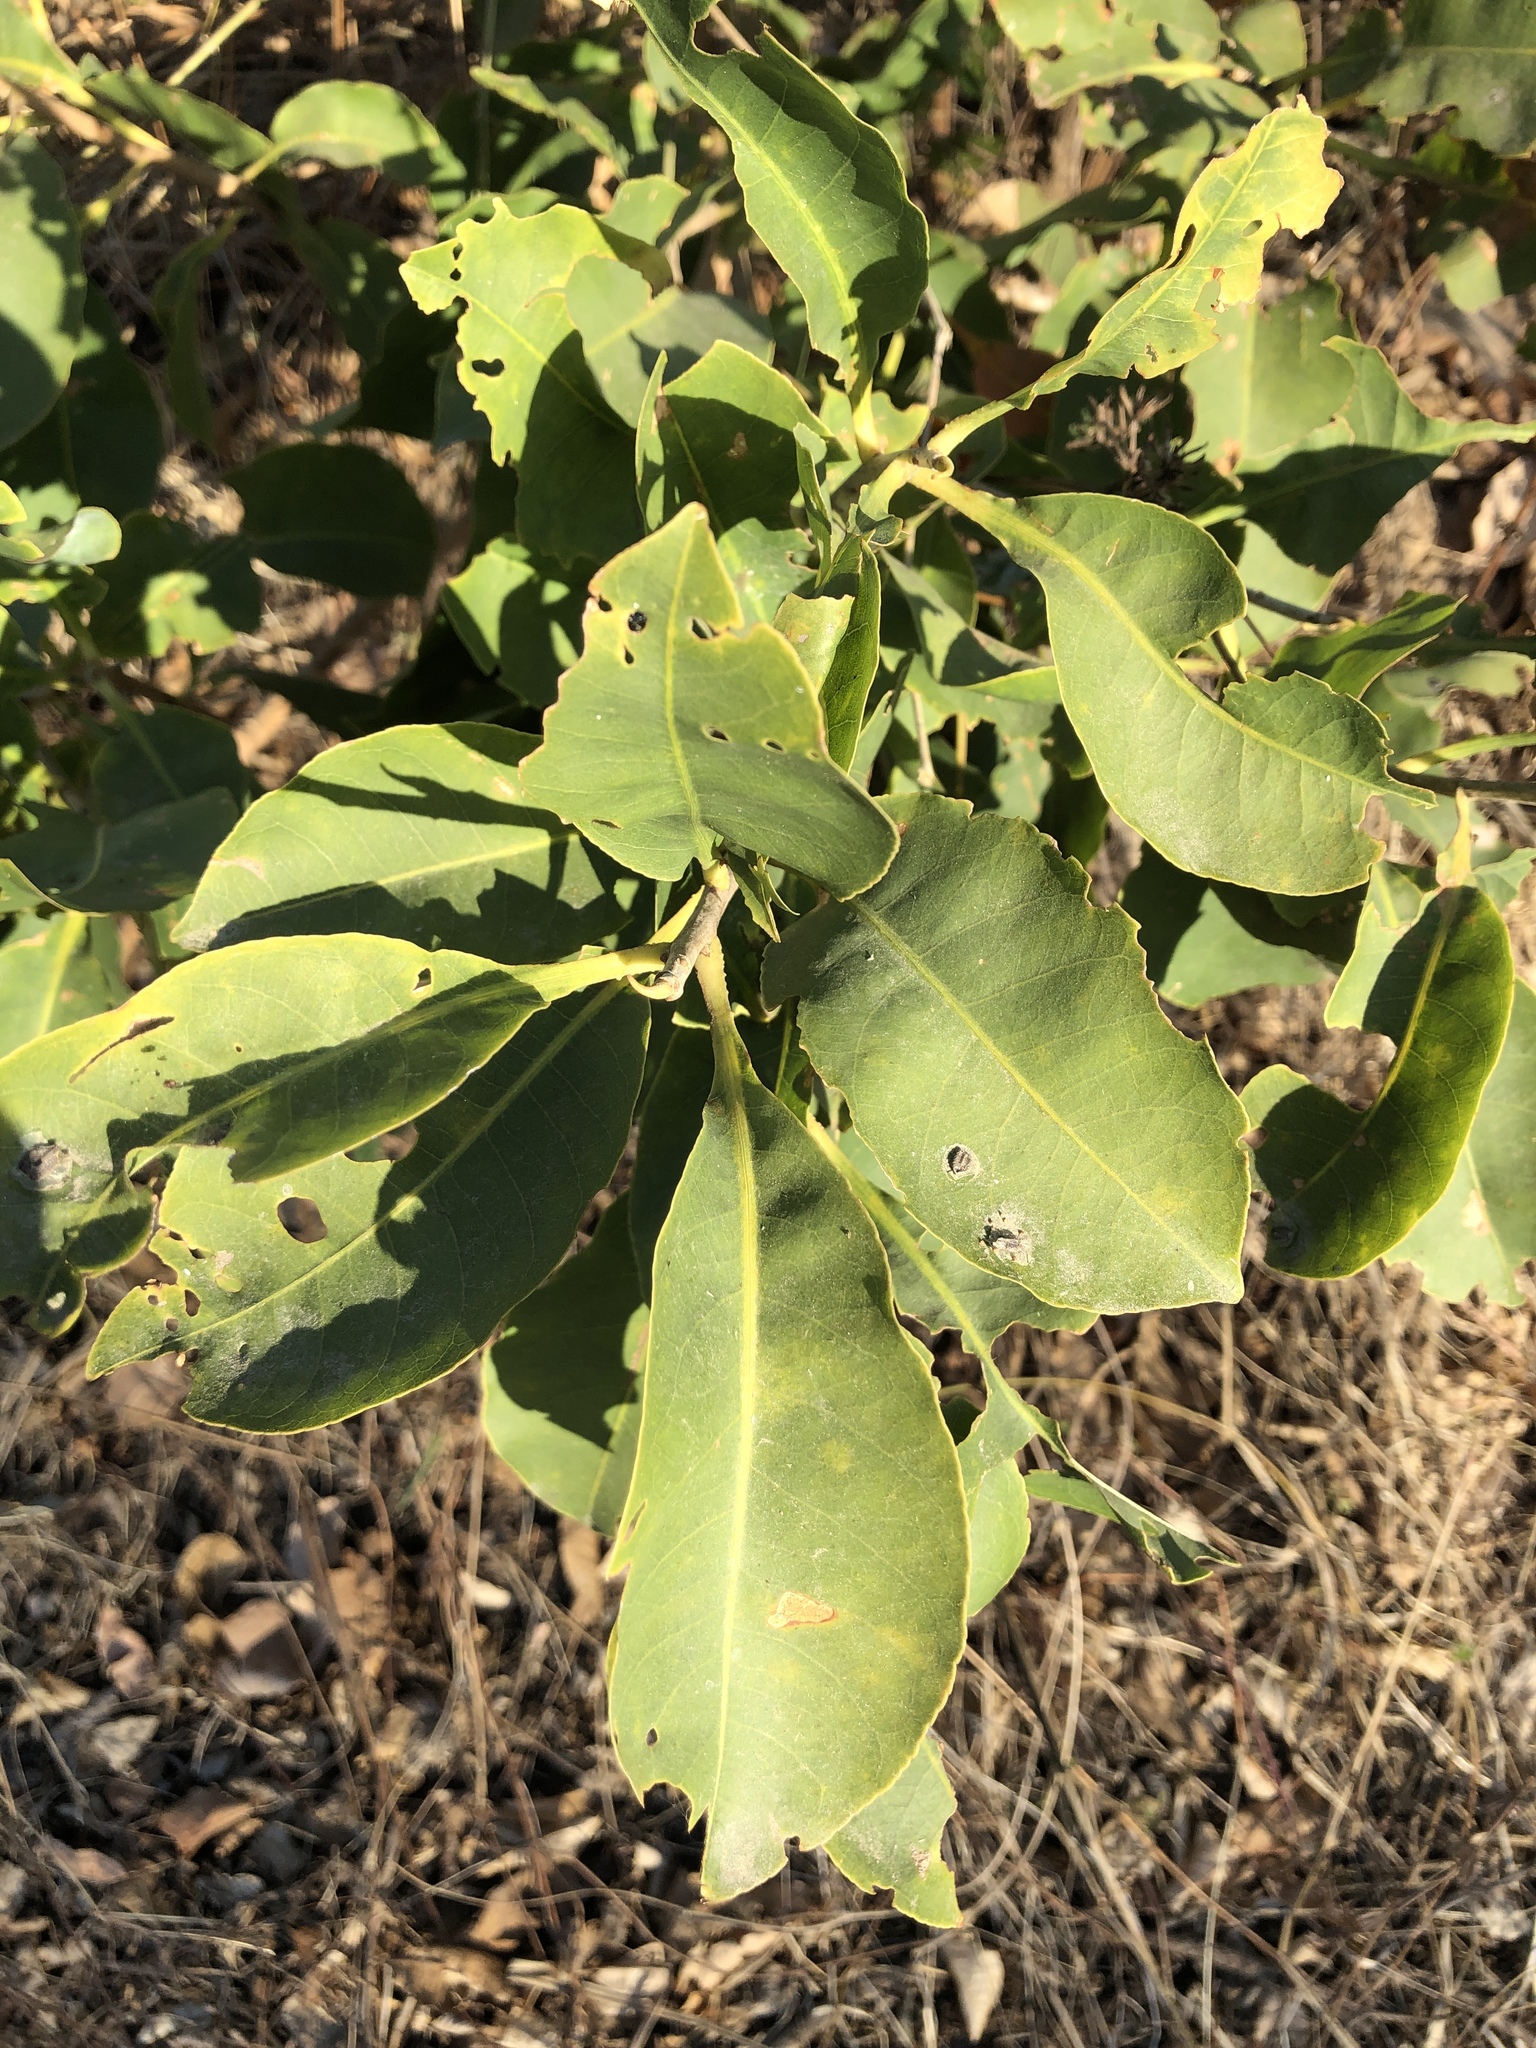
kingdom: Plantae
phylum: Tracheophyta
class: Magnoliopsida
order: Ericales
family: Lecythidaceae
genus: Planchonia
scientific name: Planchonia careya
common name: Cockatoo-apple
